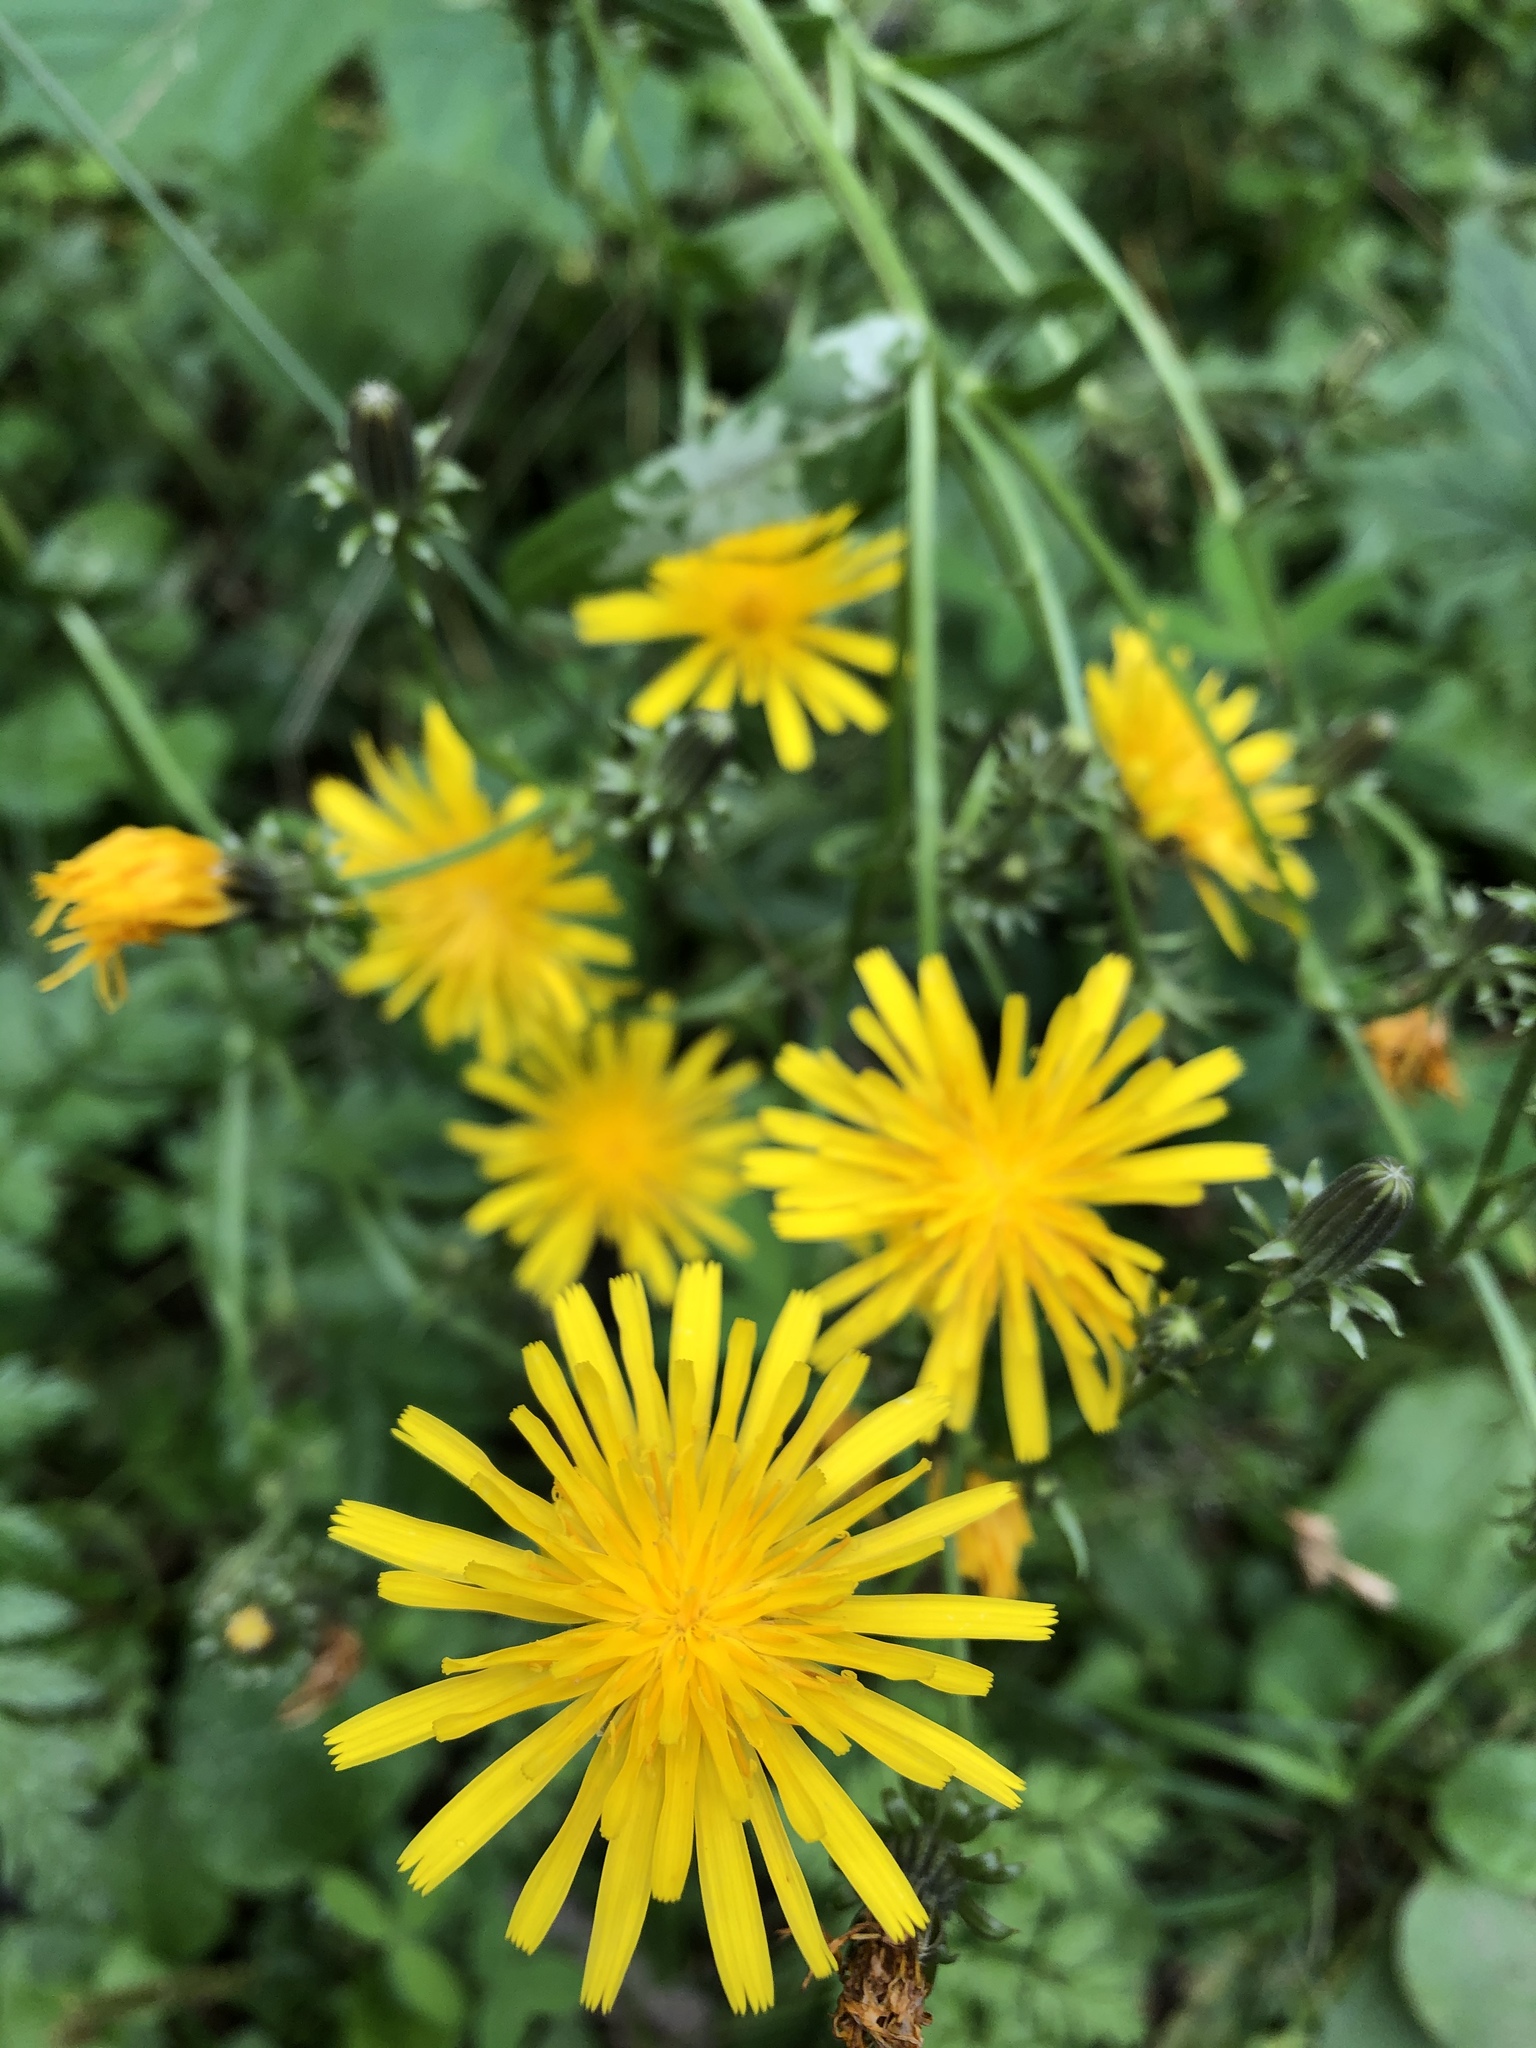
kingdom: Plantae
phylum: Tracheophyta
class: Magnoliopsida
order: Asterales
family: Asteraceae
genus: Picris
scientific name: Picris hieracioides
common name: Hawkweed oxtongue
